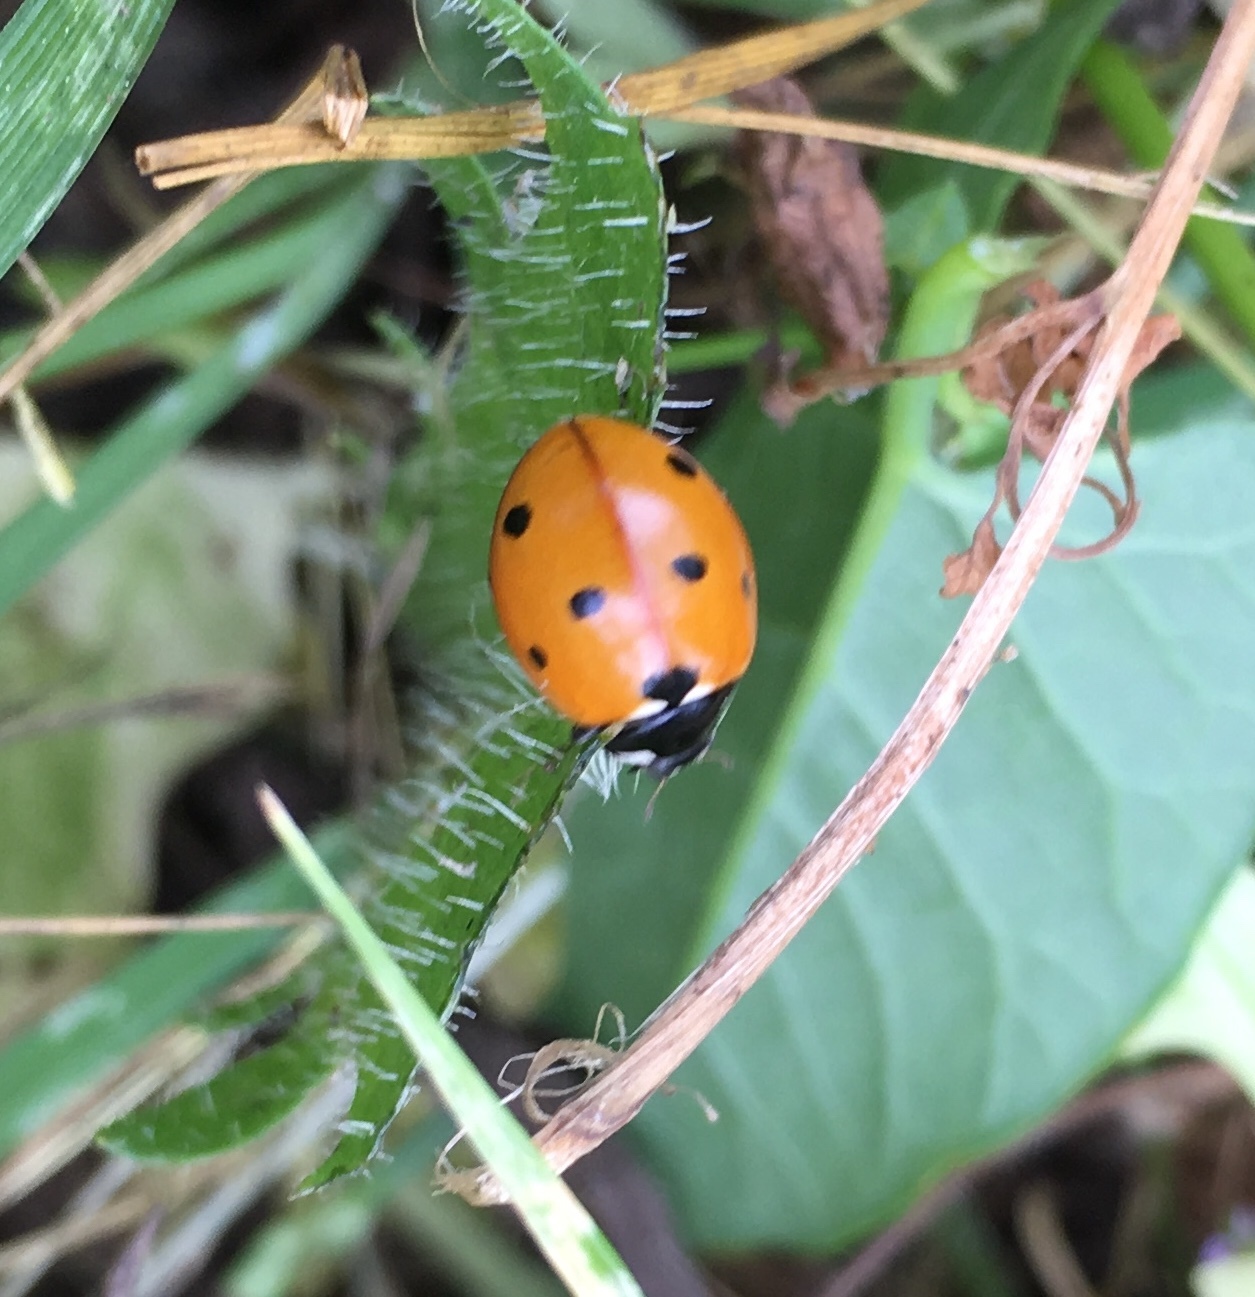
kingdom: Animalia
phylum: Arthropoda
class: Insecta
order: Coleoptera
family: Coccinellidae
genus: Coccinella
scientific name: Coccinella septempunctata
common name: Sevenspotted lady beetle
